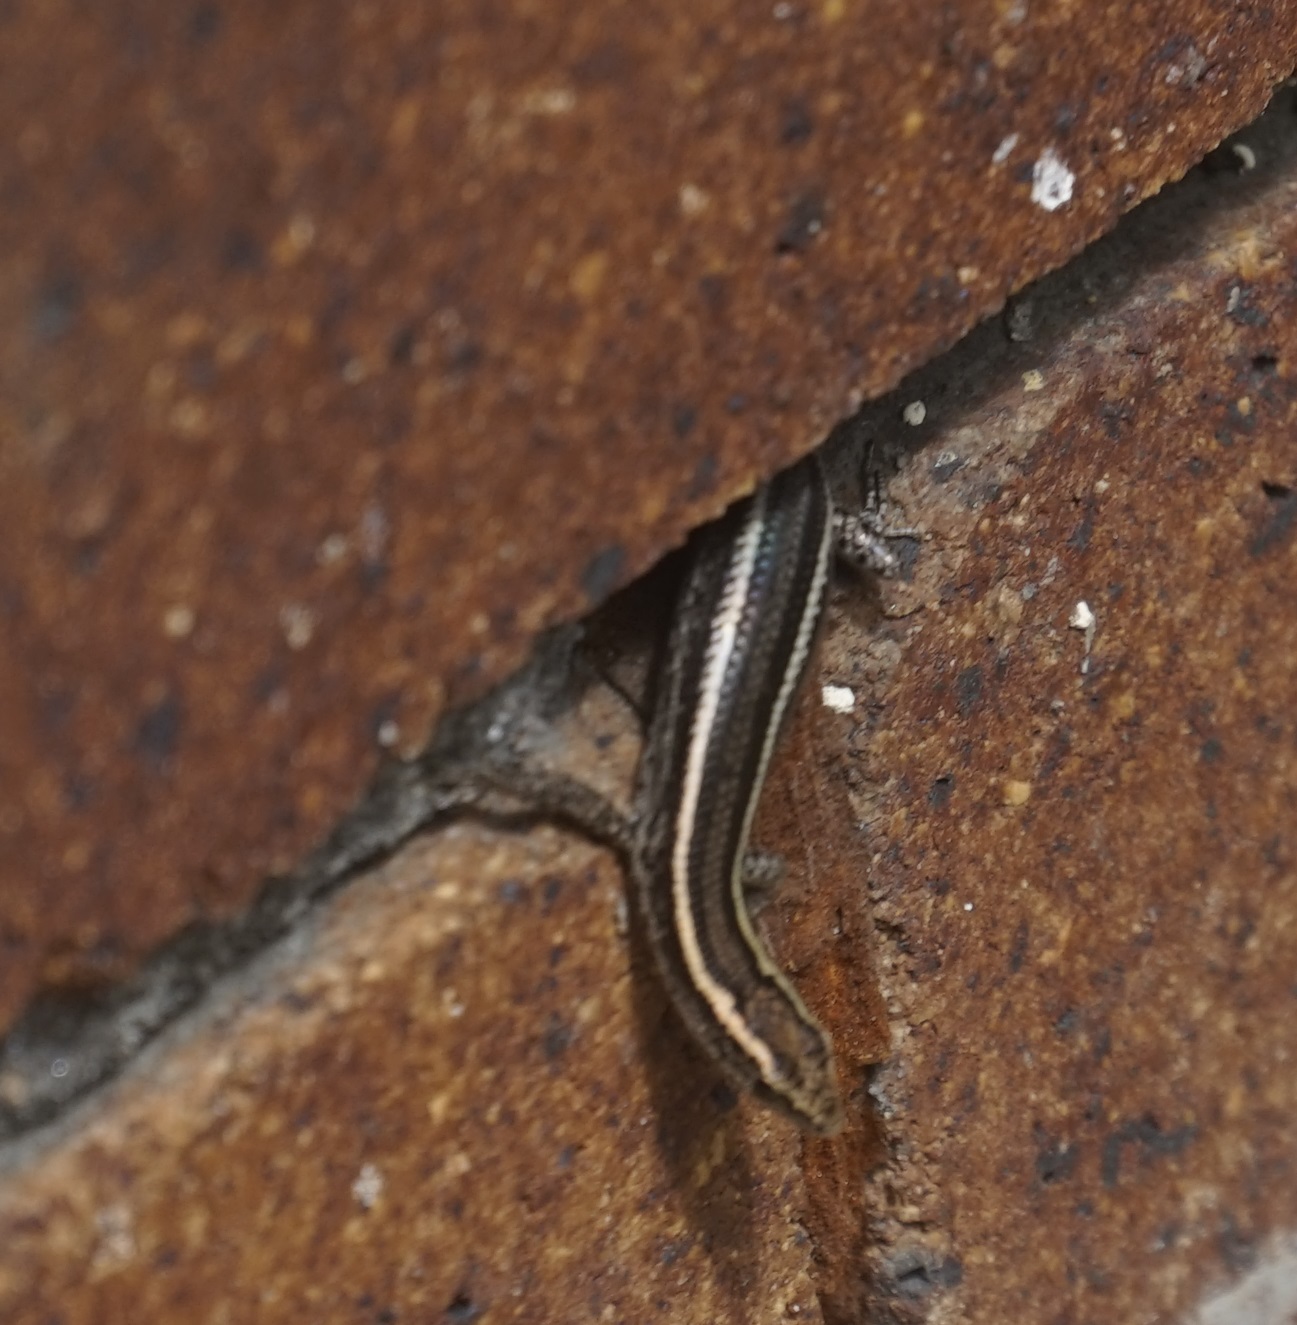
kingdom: Animalia
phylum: Chordata
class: Squamata
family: Scincidae
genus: Cryptoblepharus
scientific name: Cryptoblepharus pulcher
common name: Elegant snake-eyed skink
